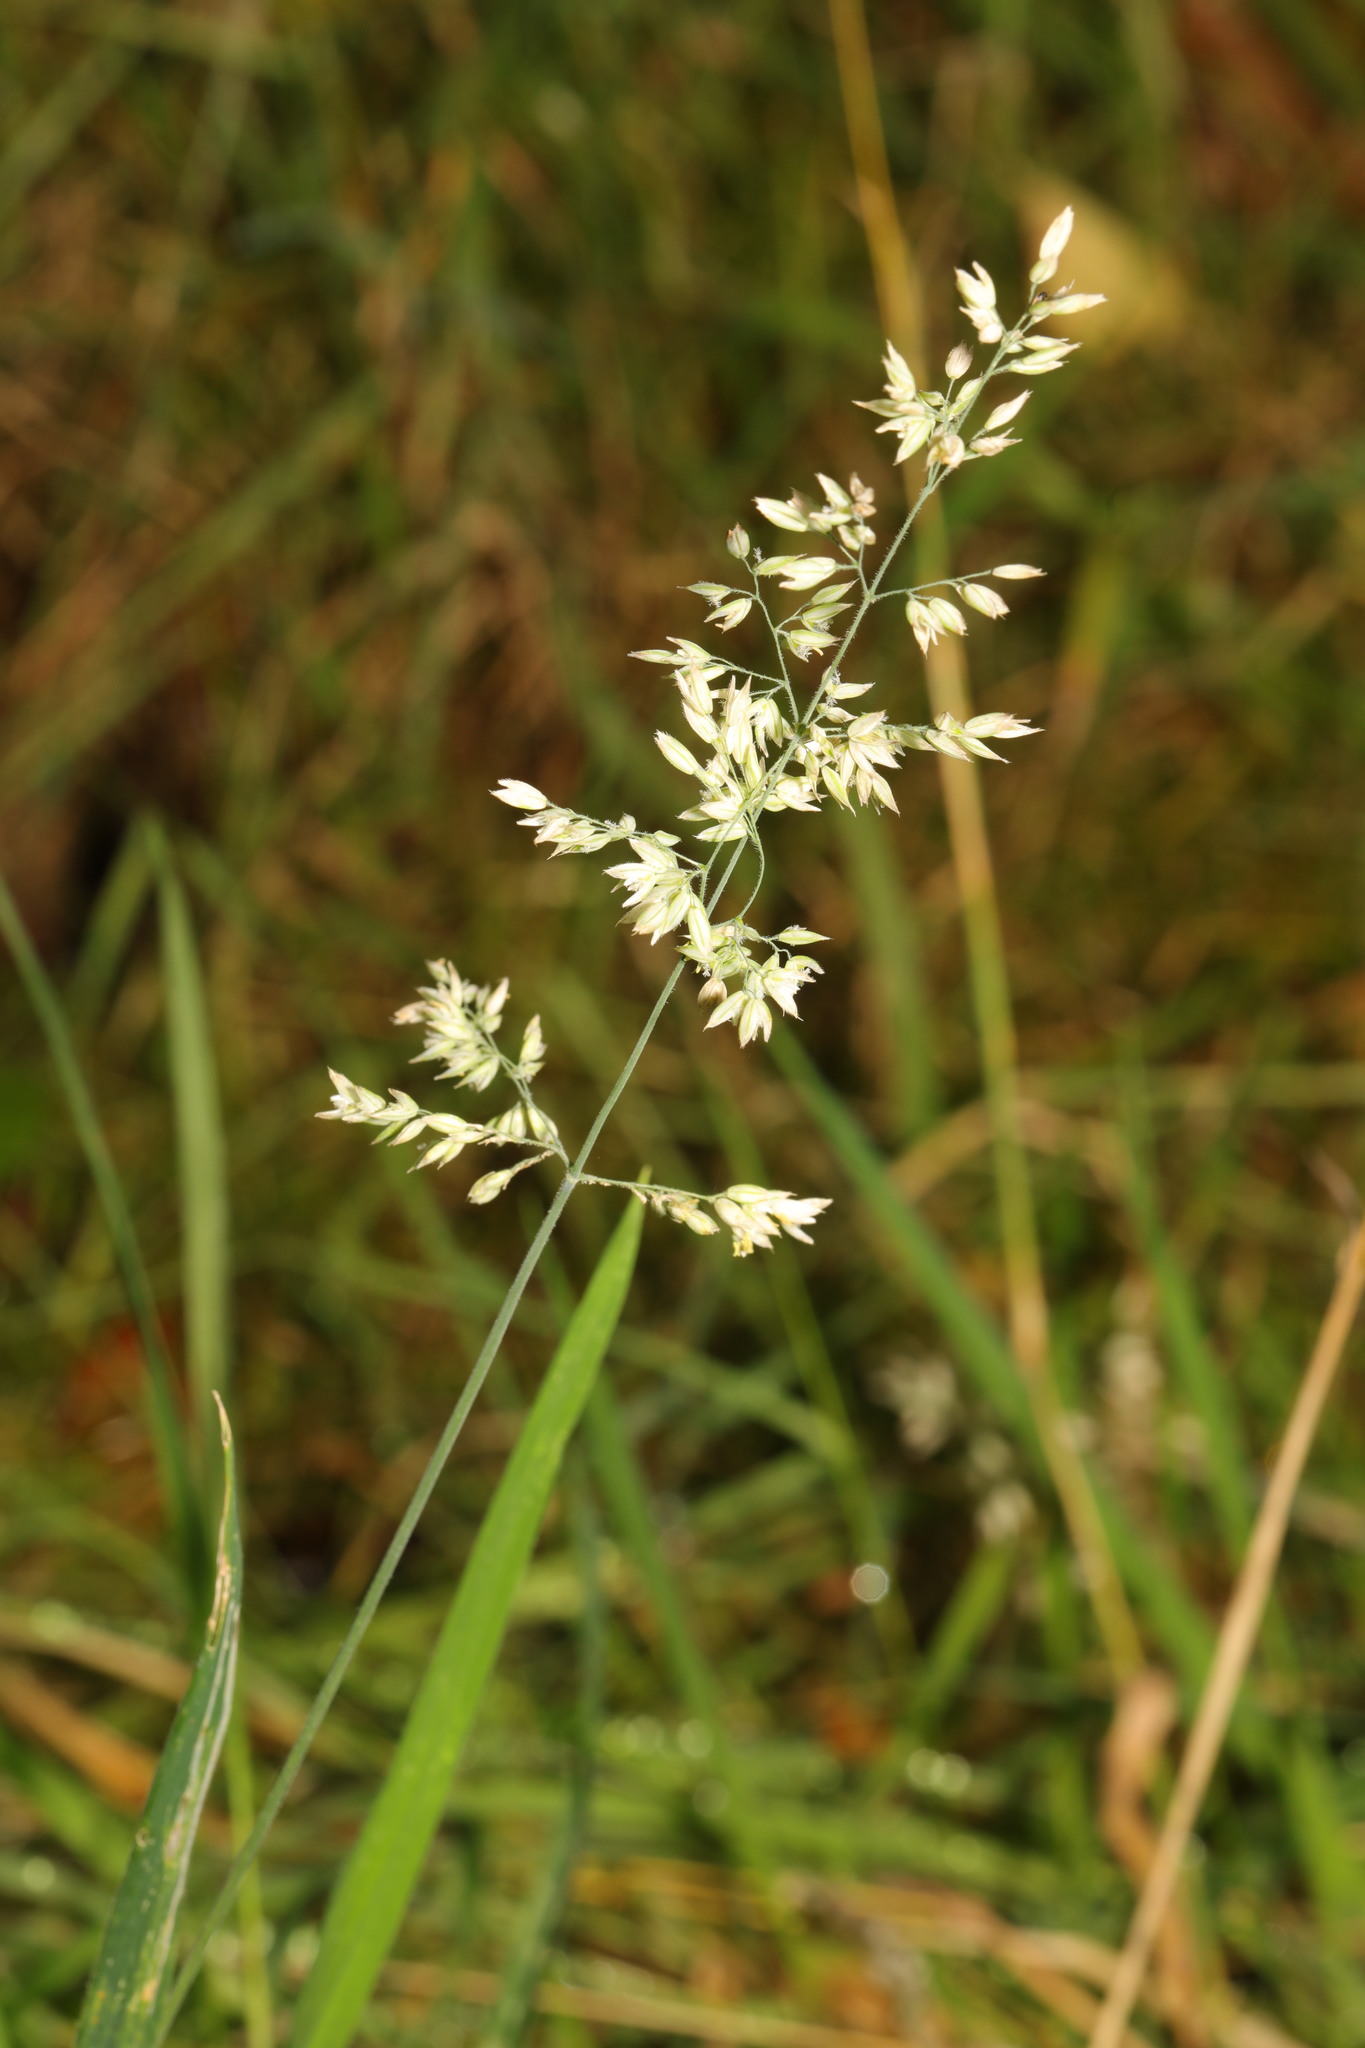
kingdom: Plantae
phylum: Tracheophyta
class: Liliopsida
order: Poales
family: Poaceae
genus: Holcus
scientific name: Holcus lanatus
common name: Yorkshire-fog
